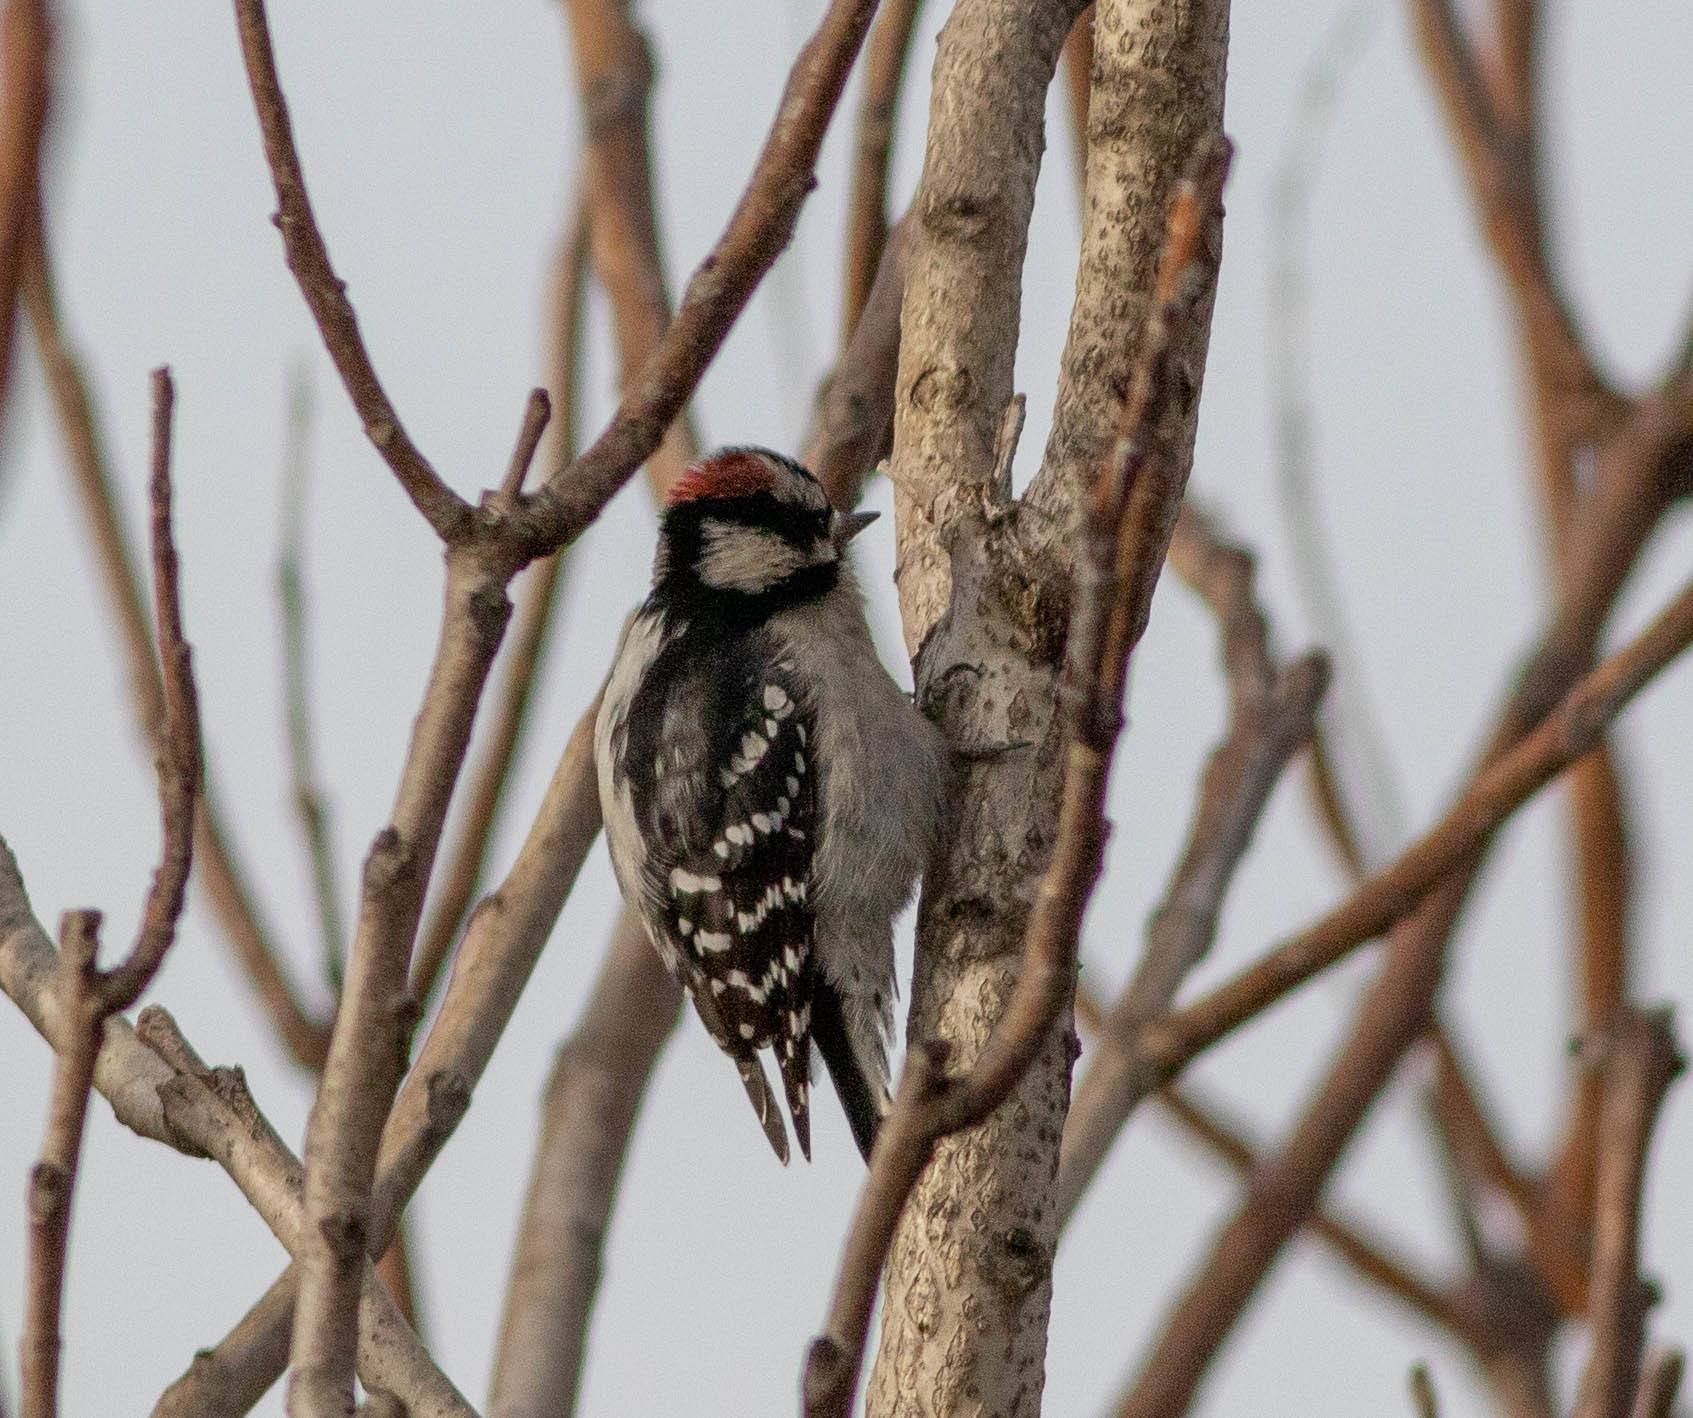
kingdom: Animalia
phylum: Chordata
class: Aves
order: Piciformes
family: Picidae
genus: Dryobates
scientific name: Dryobates pubescens
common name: Downy woodpecker
